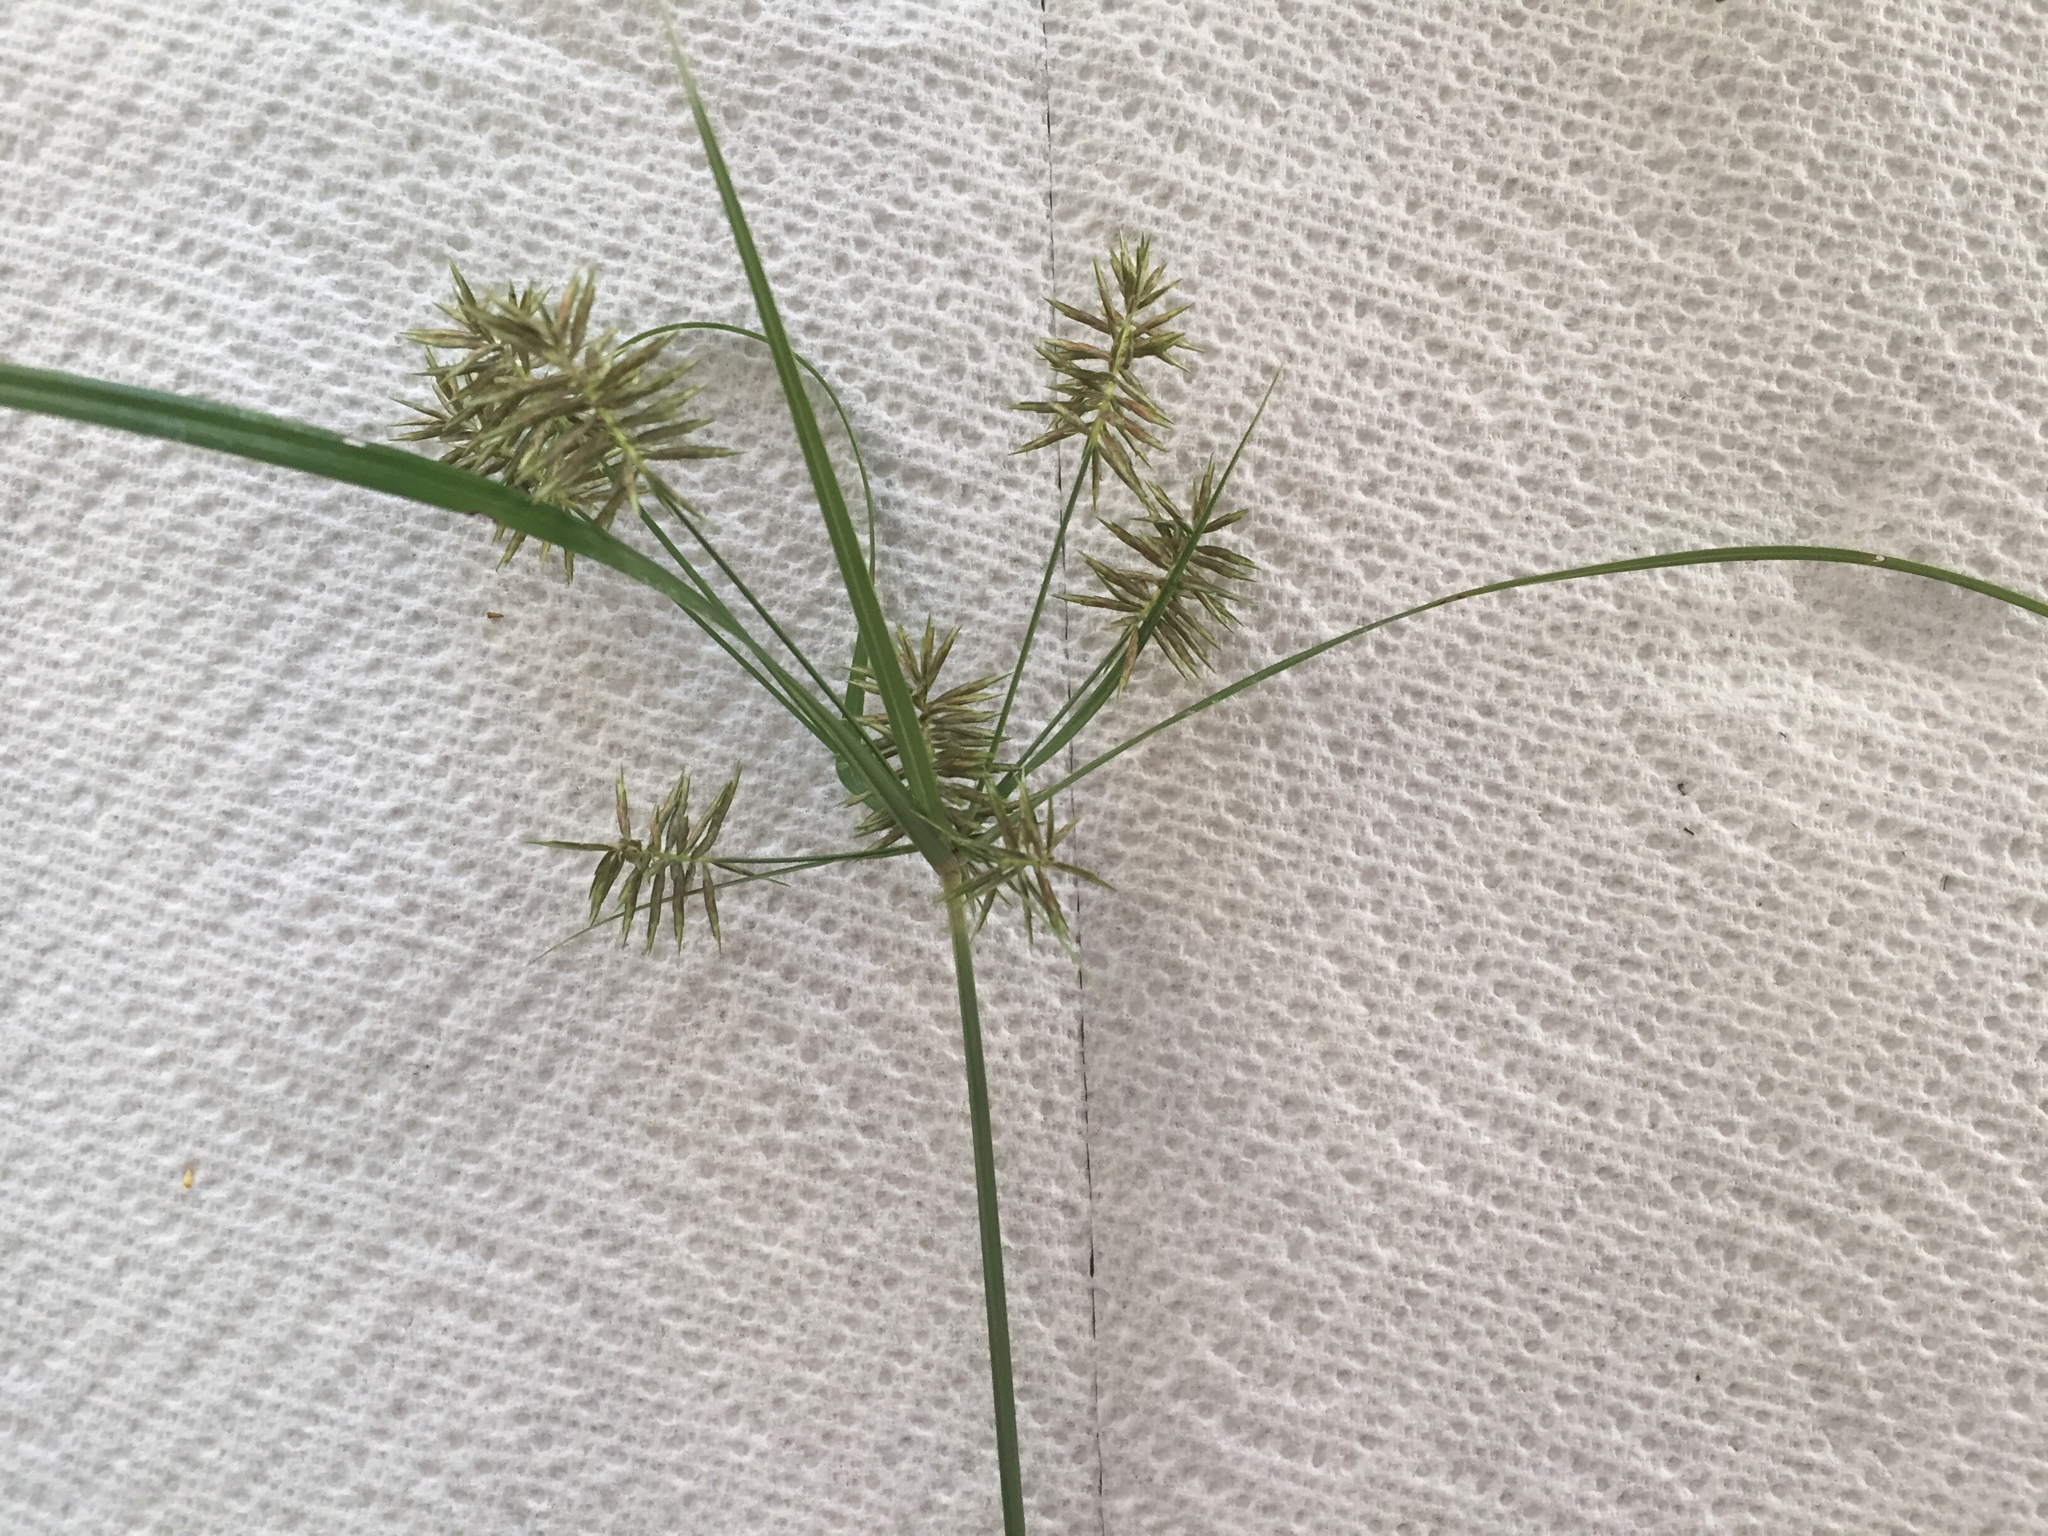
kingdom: Plantae
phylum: Tracheophyta
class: Liliopsida
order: Poales
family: Cyperaceae
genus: Cyperus
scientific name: Cyperus pseudothyrsiflorus
